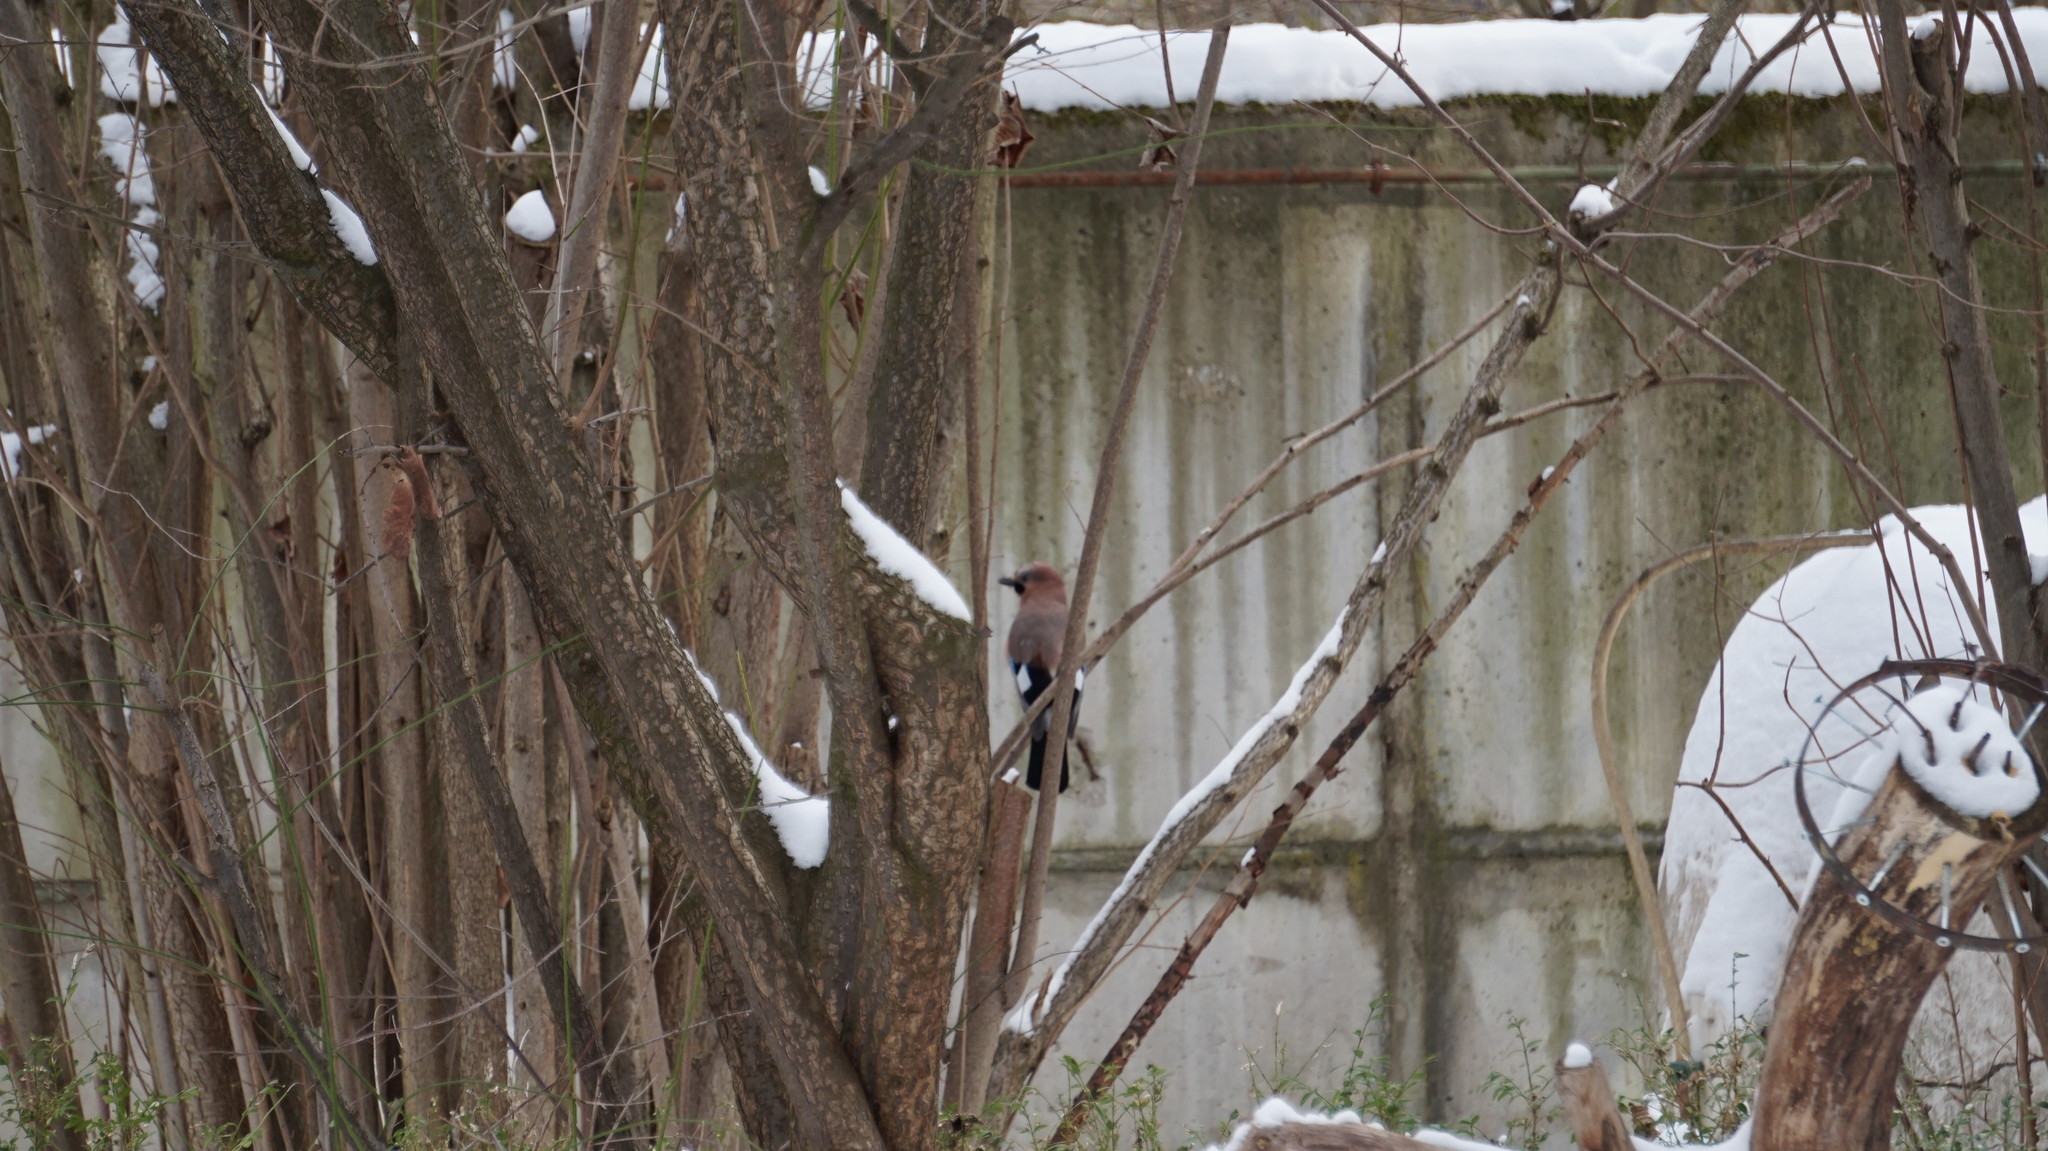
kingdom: Animalia
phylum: Chordata
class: Aves
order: Passeriformes
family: Corvidae
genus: Garrulus
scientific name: Garrulus glandarius
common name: Eurasian jay
